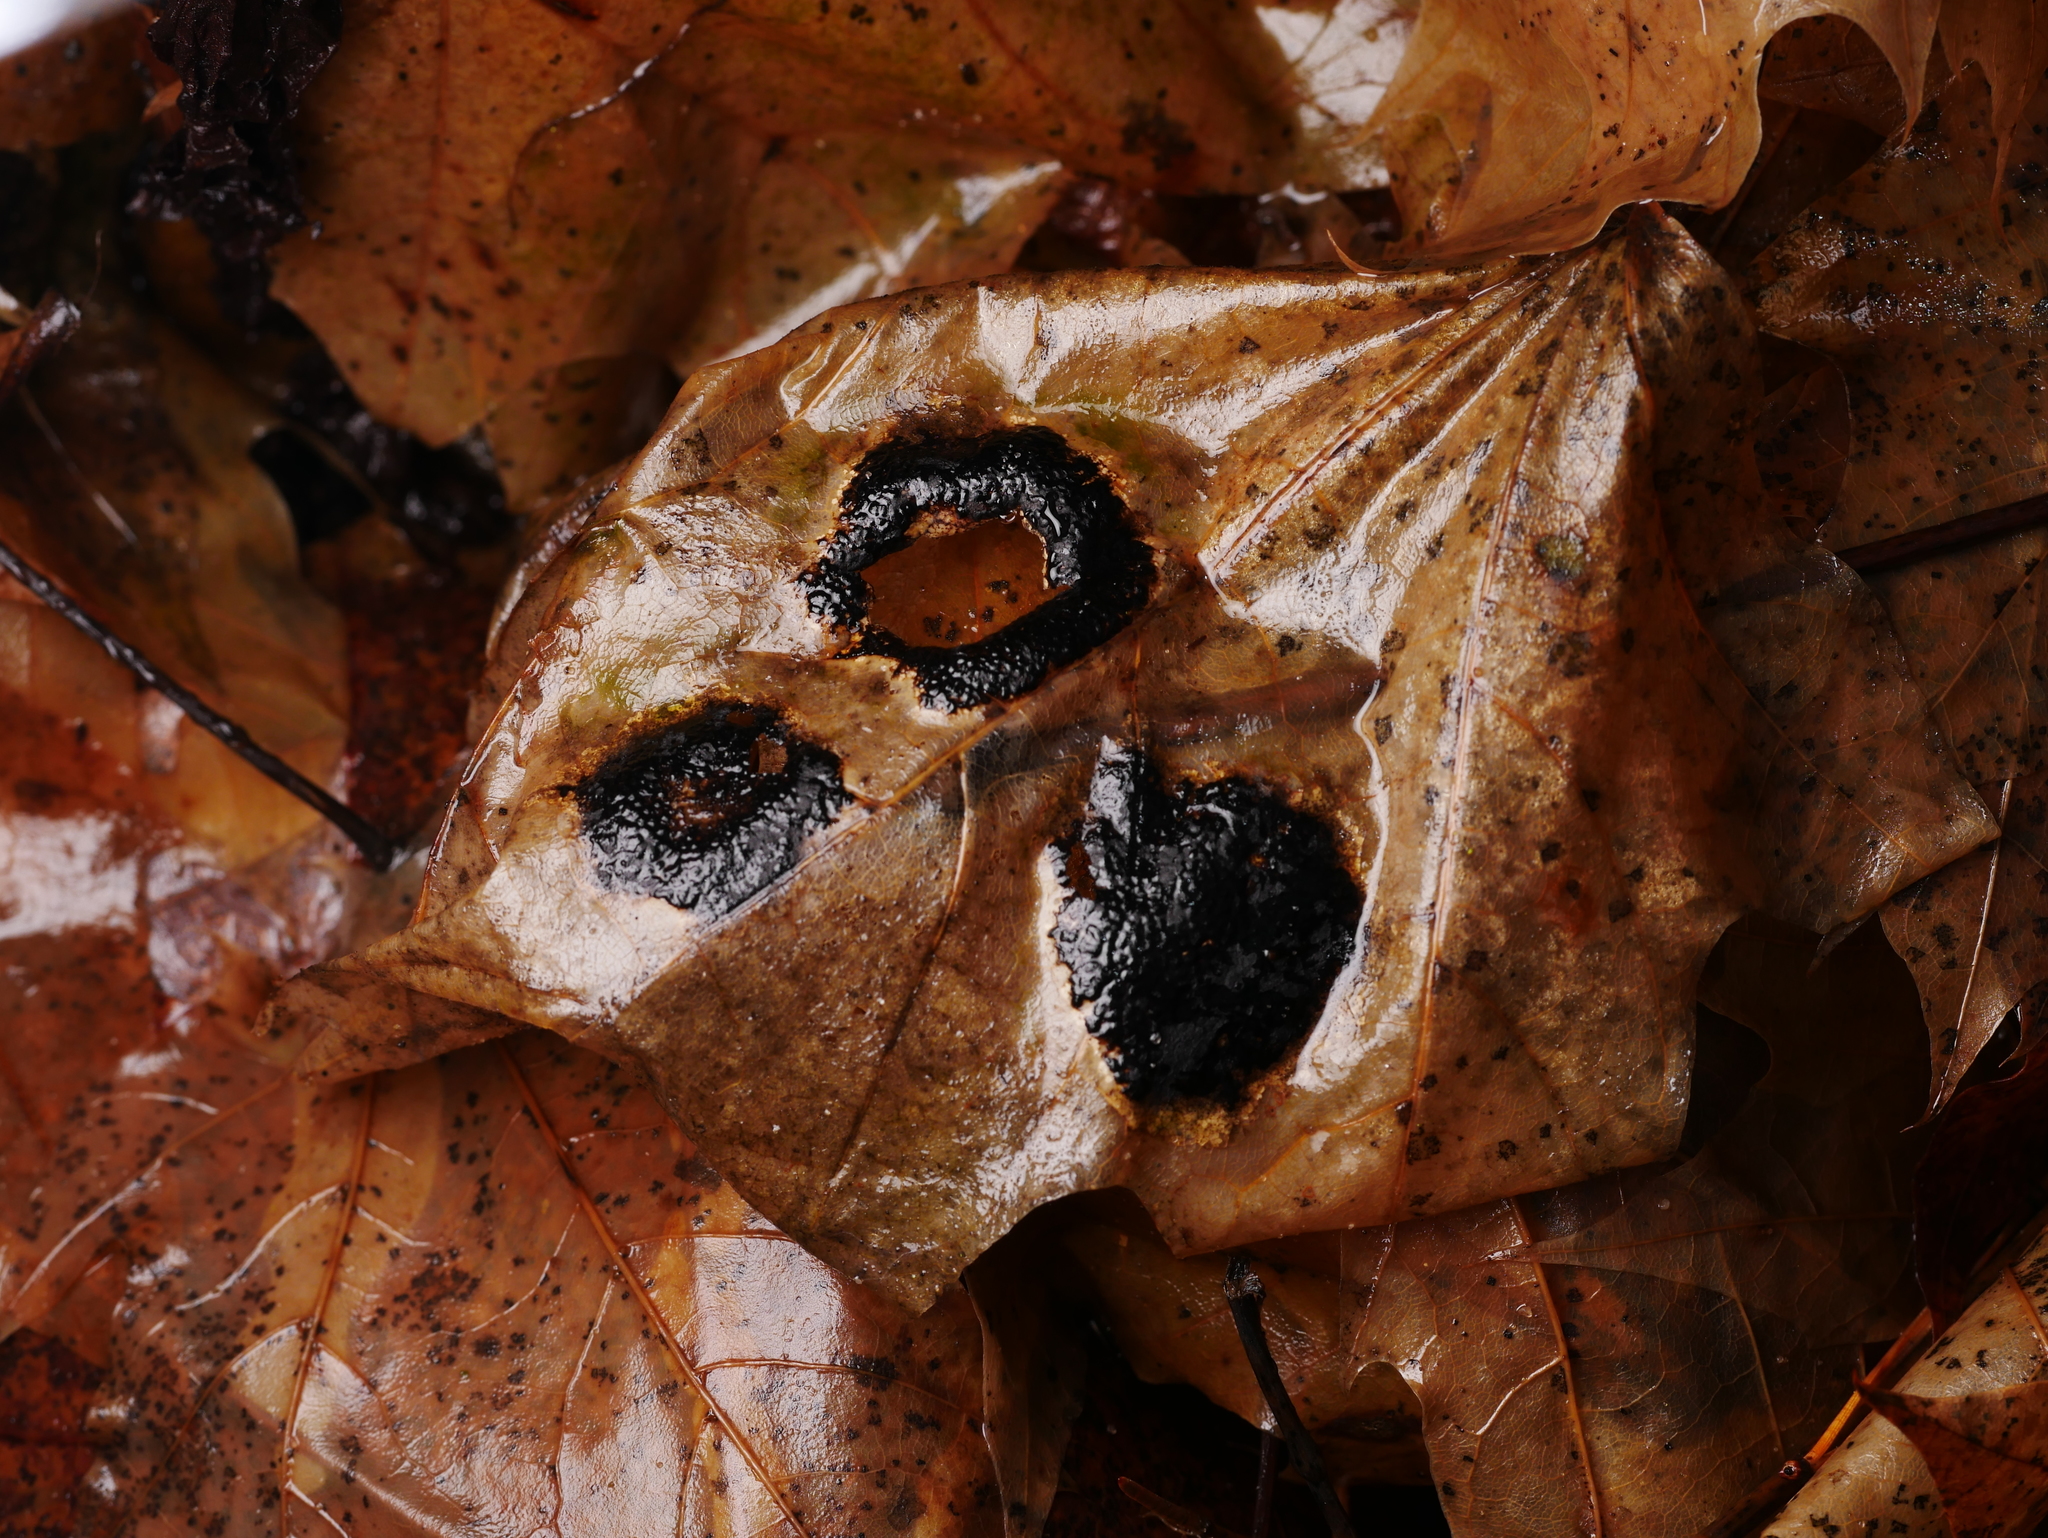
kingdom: Fungi
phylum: Ascomycota
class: Leotiomycetes
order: Rhytismatales
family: Rhytismataceae
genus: Rhytisma
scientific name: Rhytisma acerinum
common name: European tar spot
